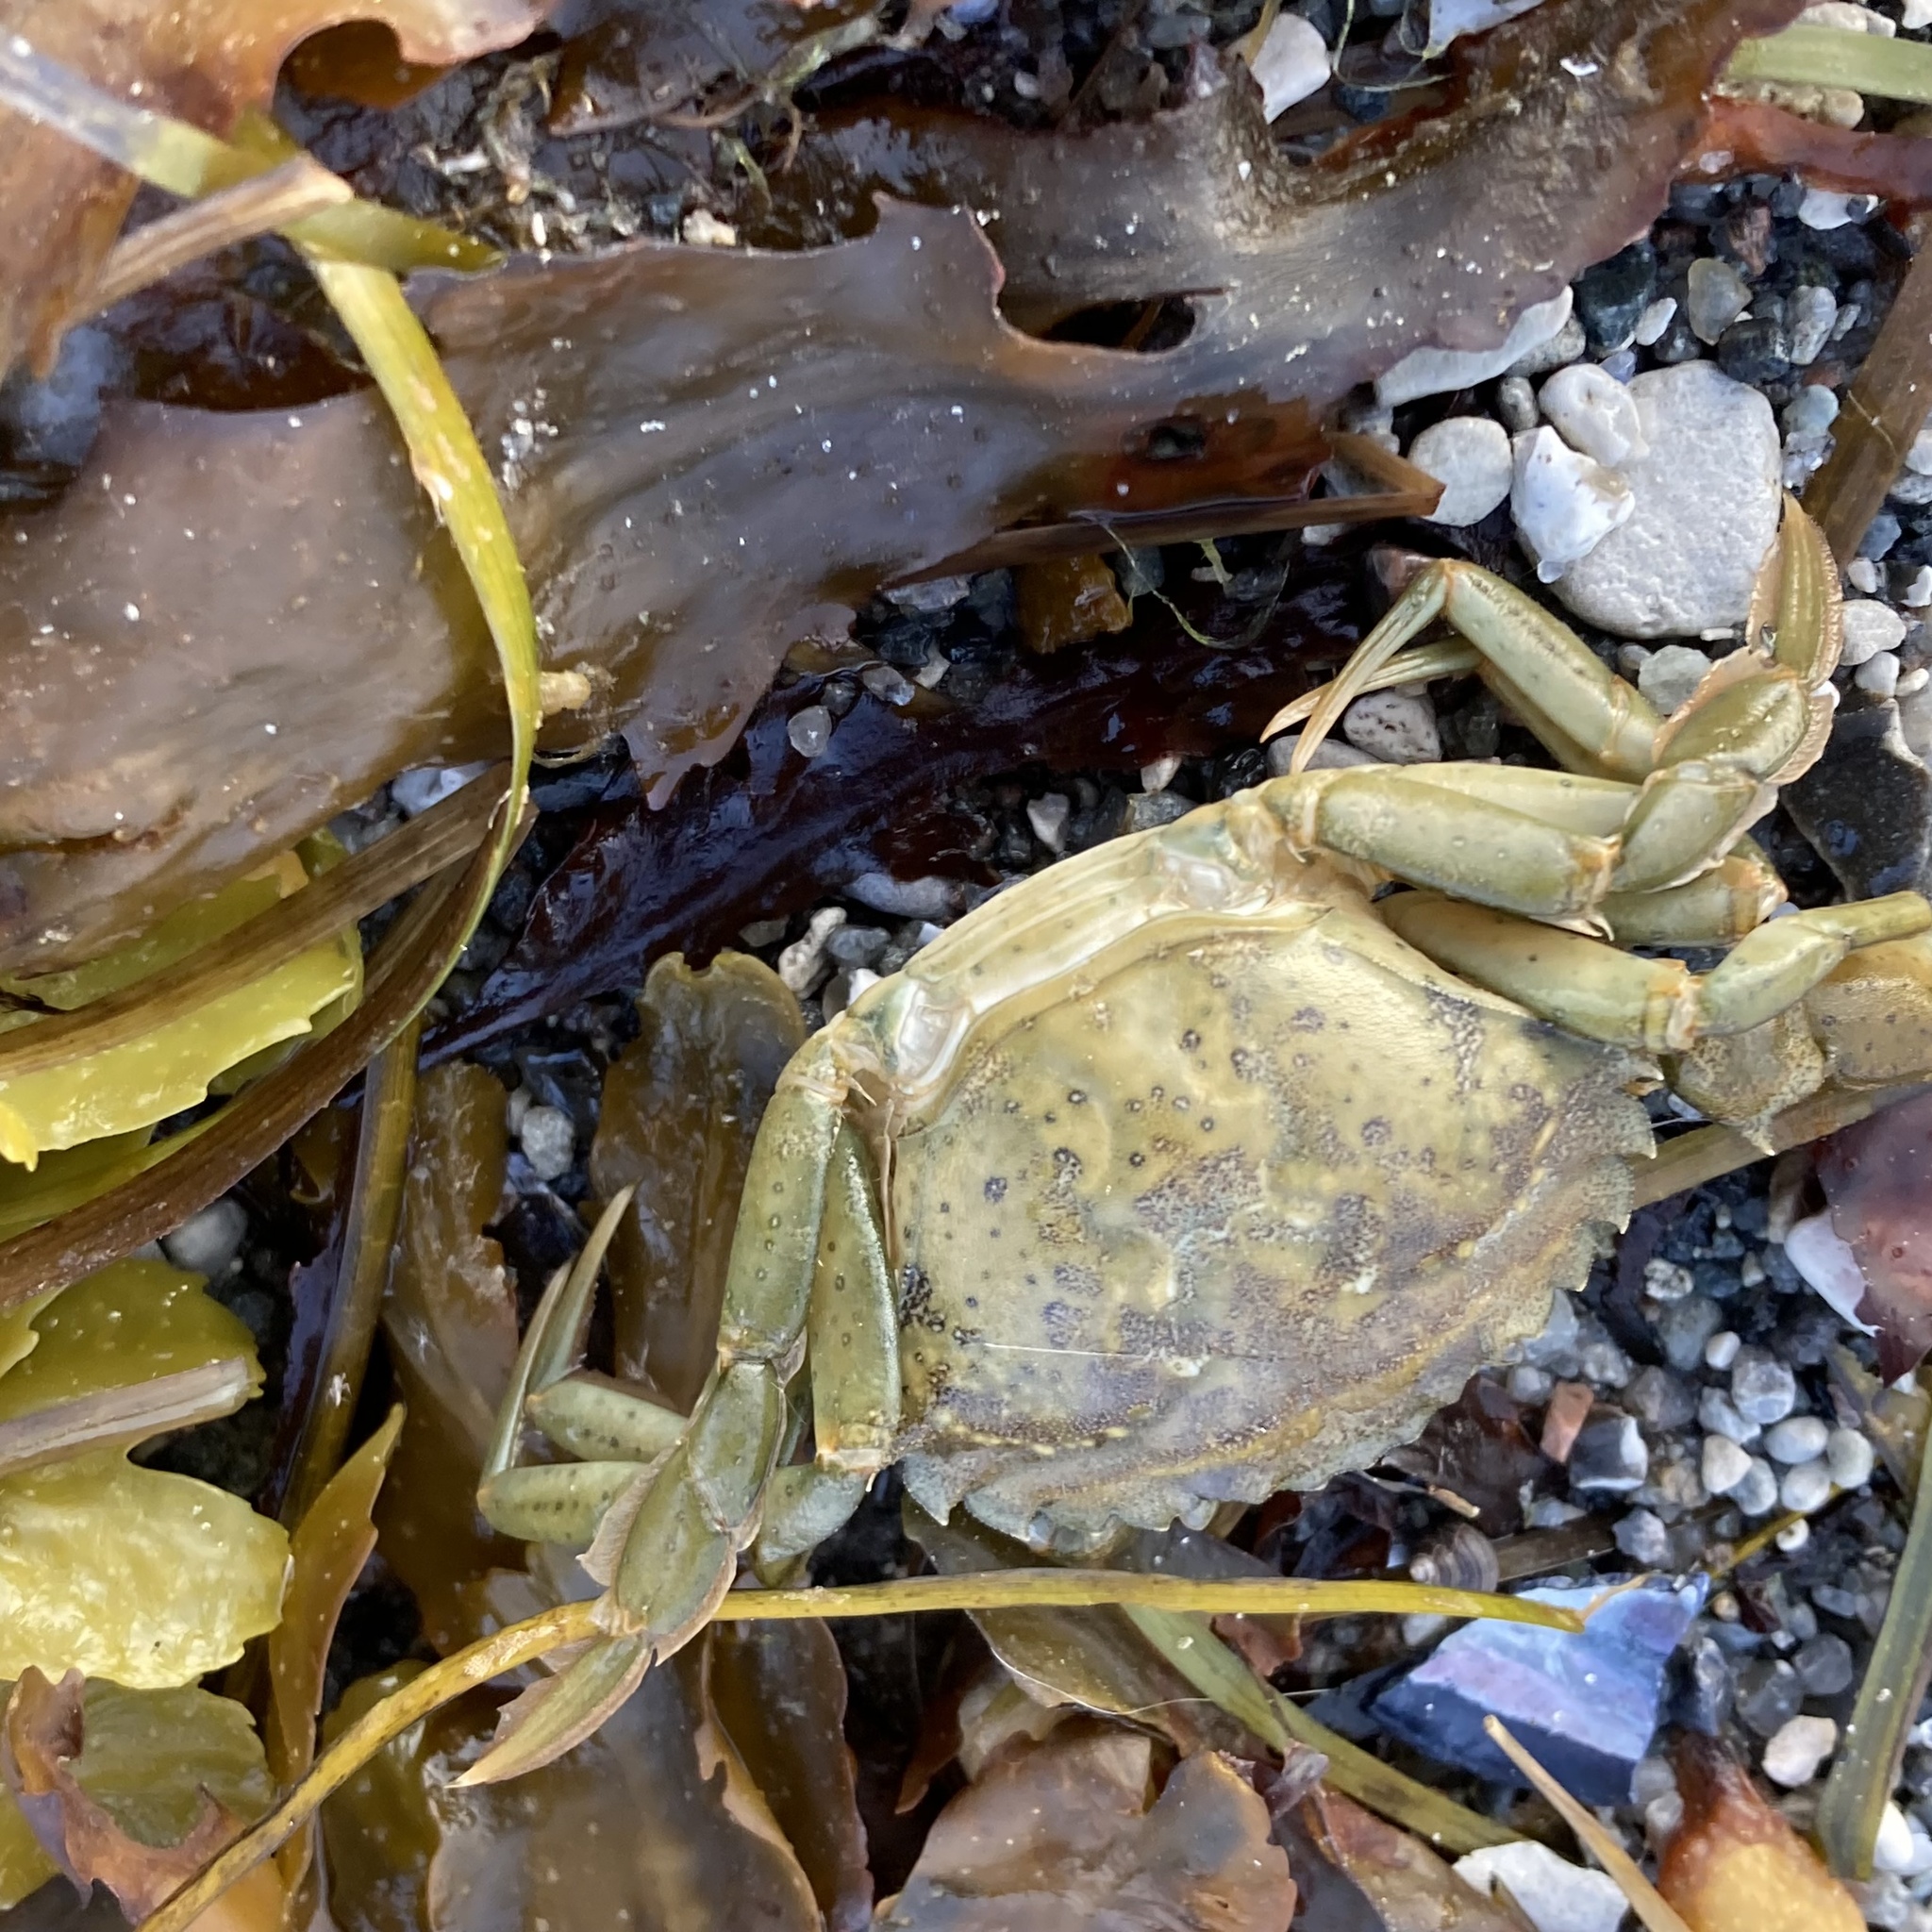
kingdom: Animalia
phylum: Arthropoda
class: Malacostraca
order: Decapoda
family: Carcinidae
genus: Carcinus
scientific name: Carcinus maenas
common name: European green crab
